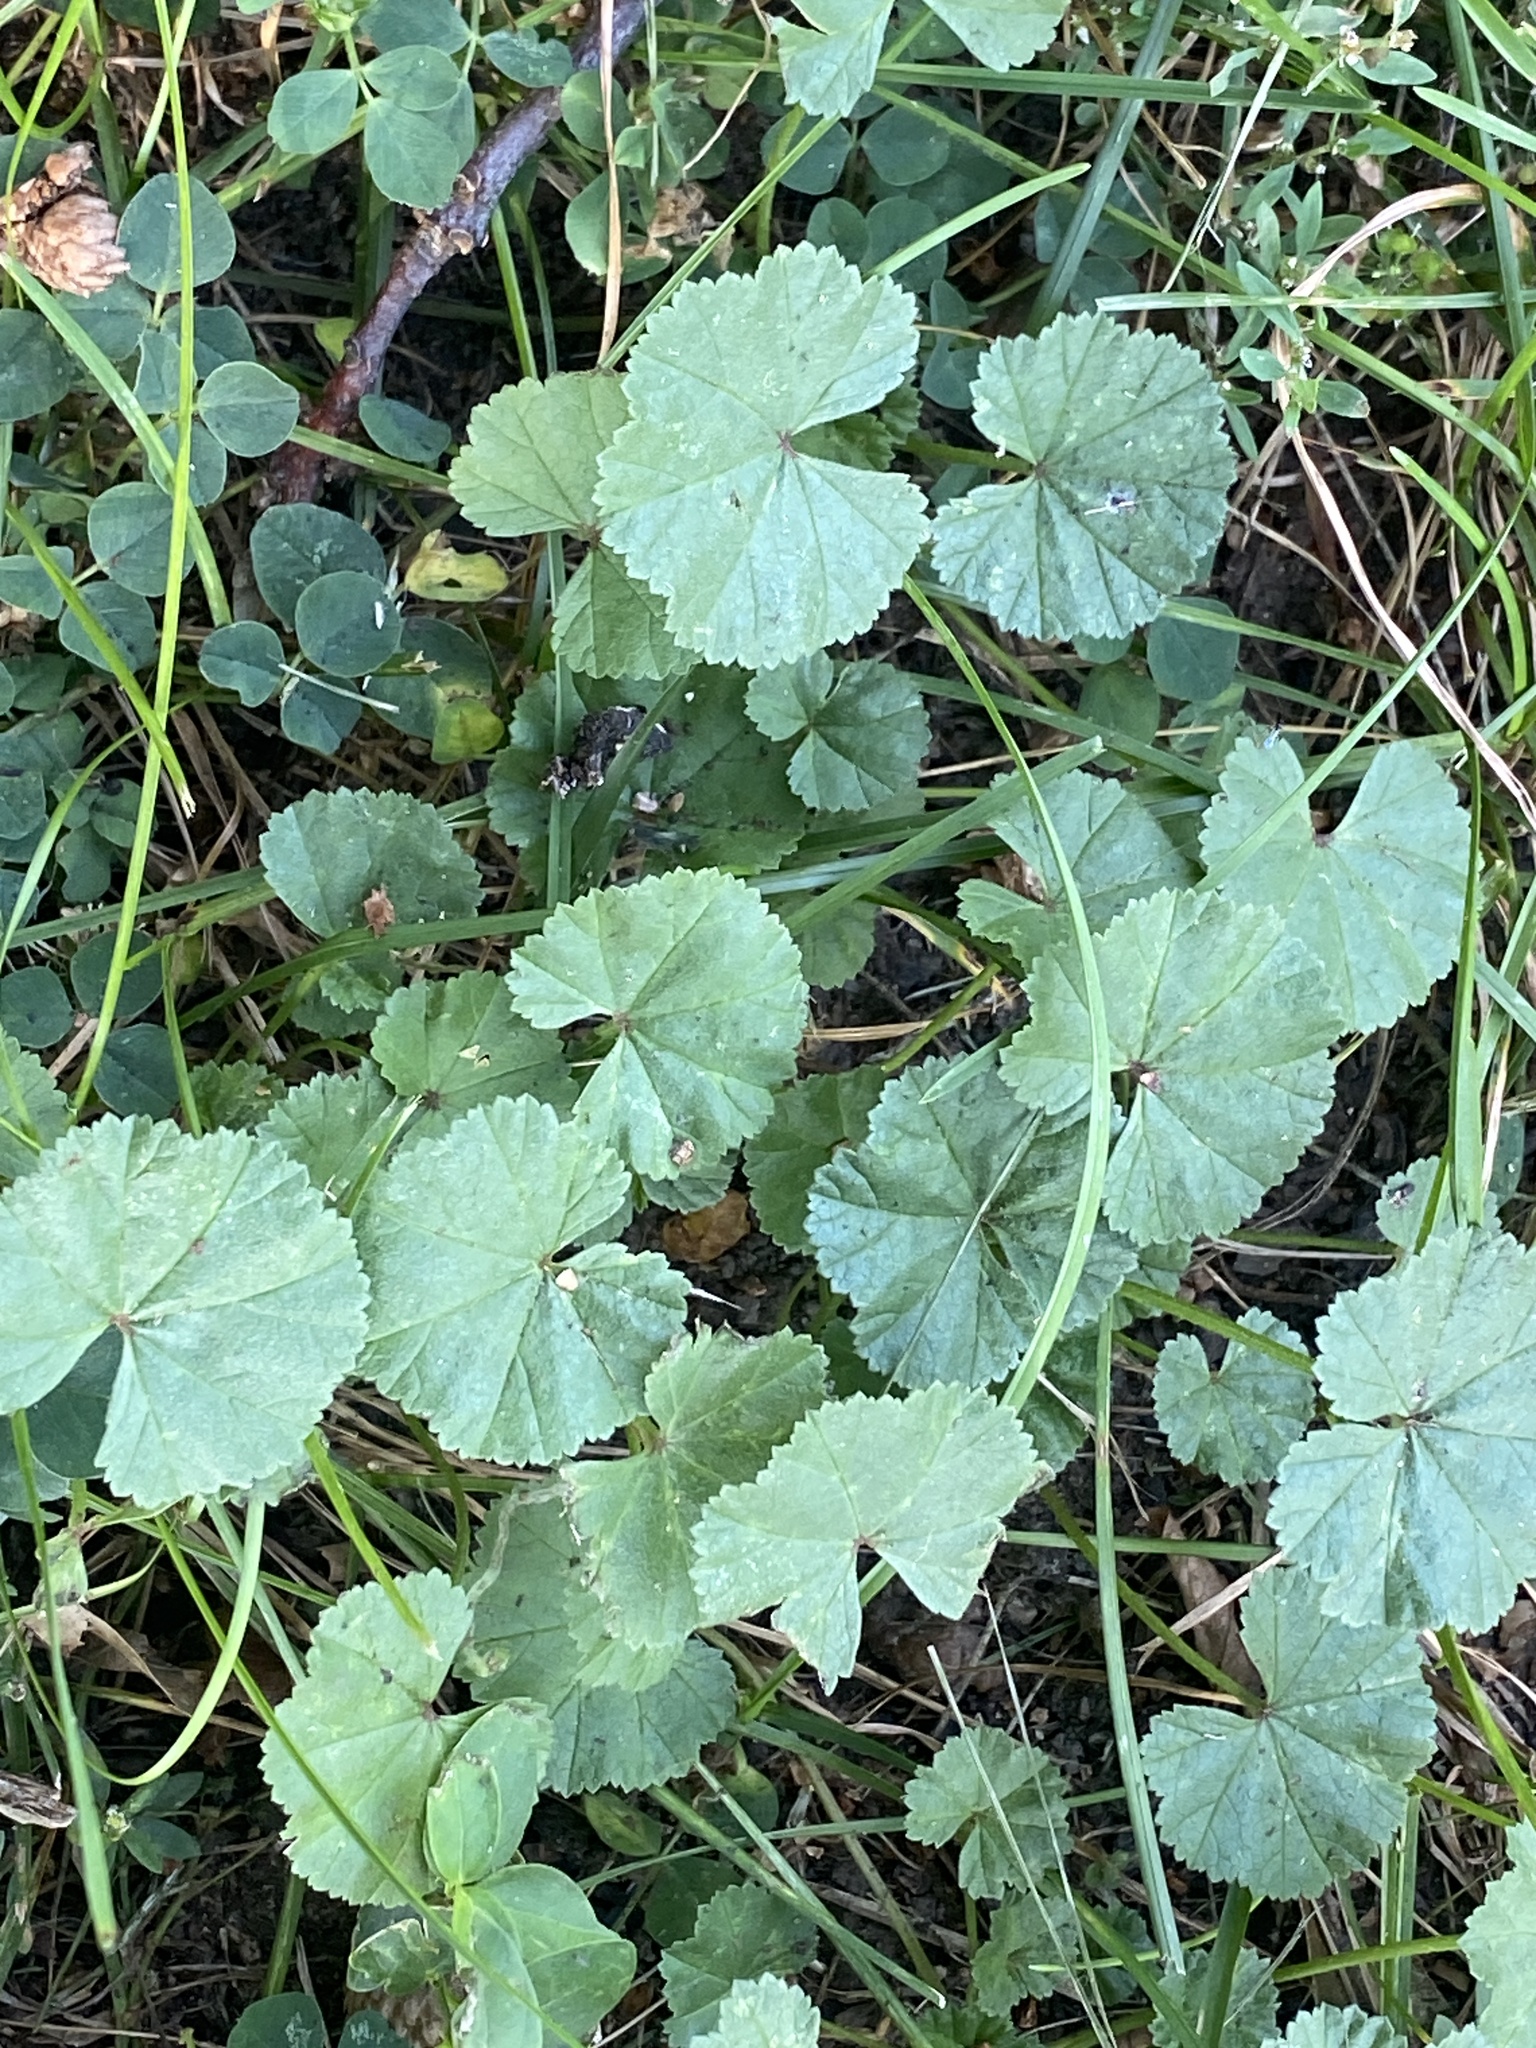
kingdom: Plantae
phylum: Tracheophyta
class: Magnoliopsida
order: Malvales
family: Malvaceae
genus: Malva
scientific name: Malva neglecta
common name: Common mallow
